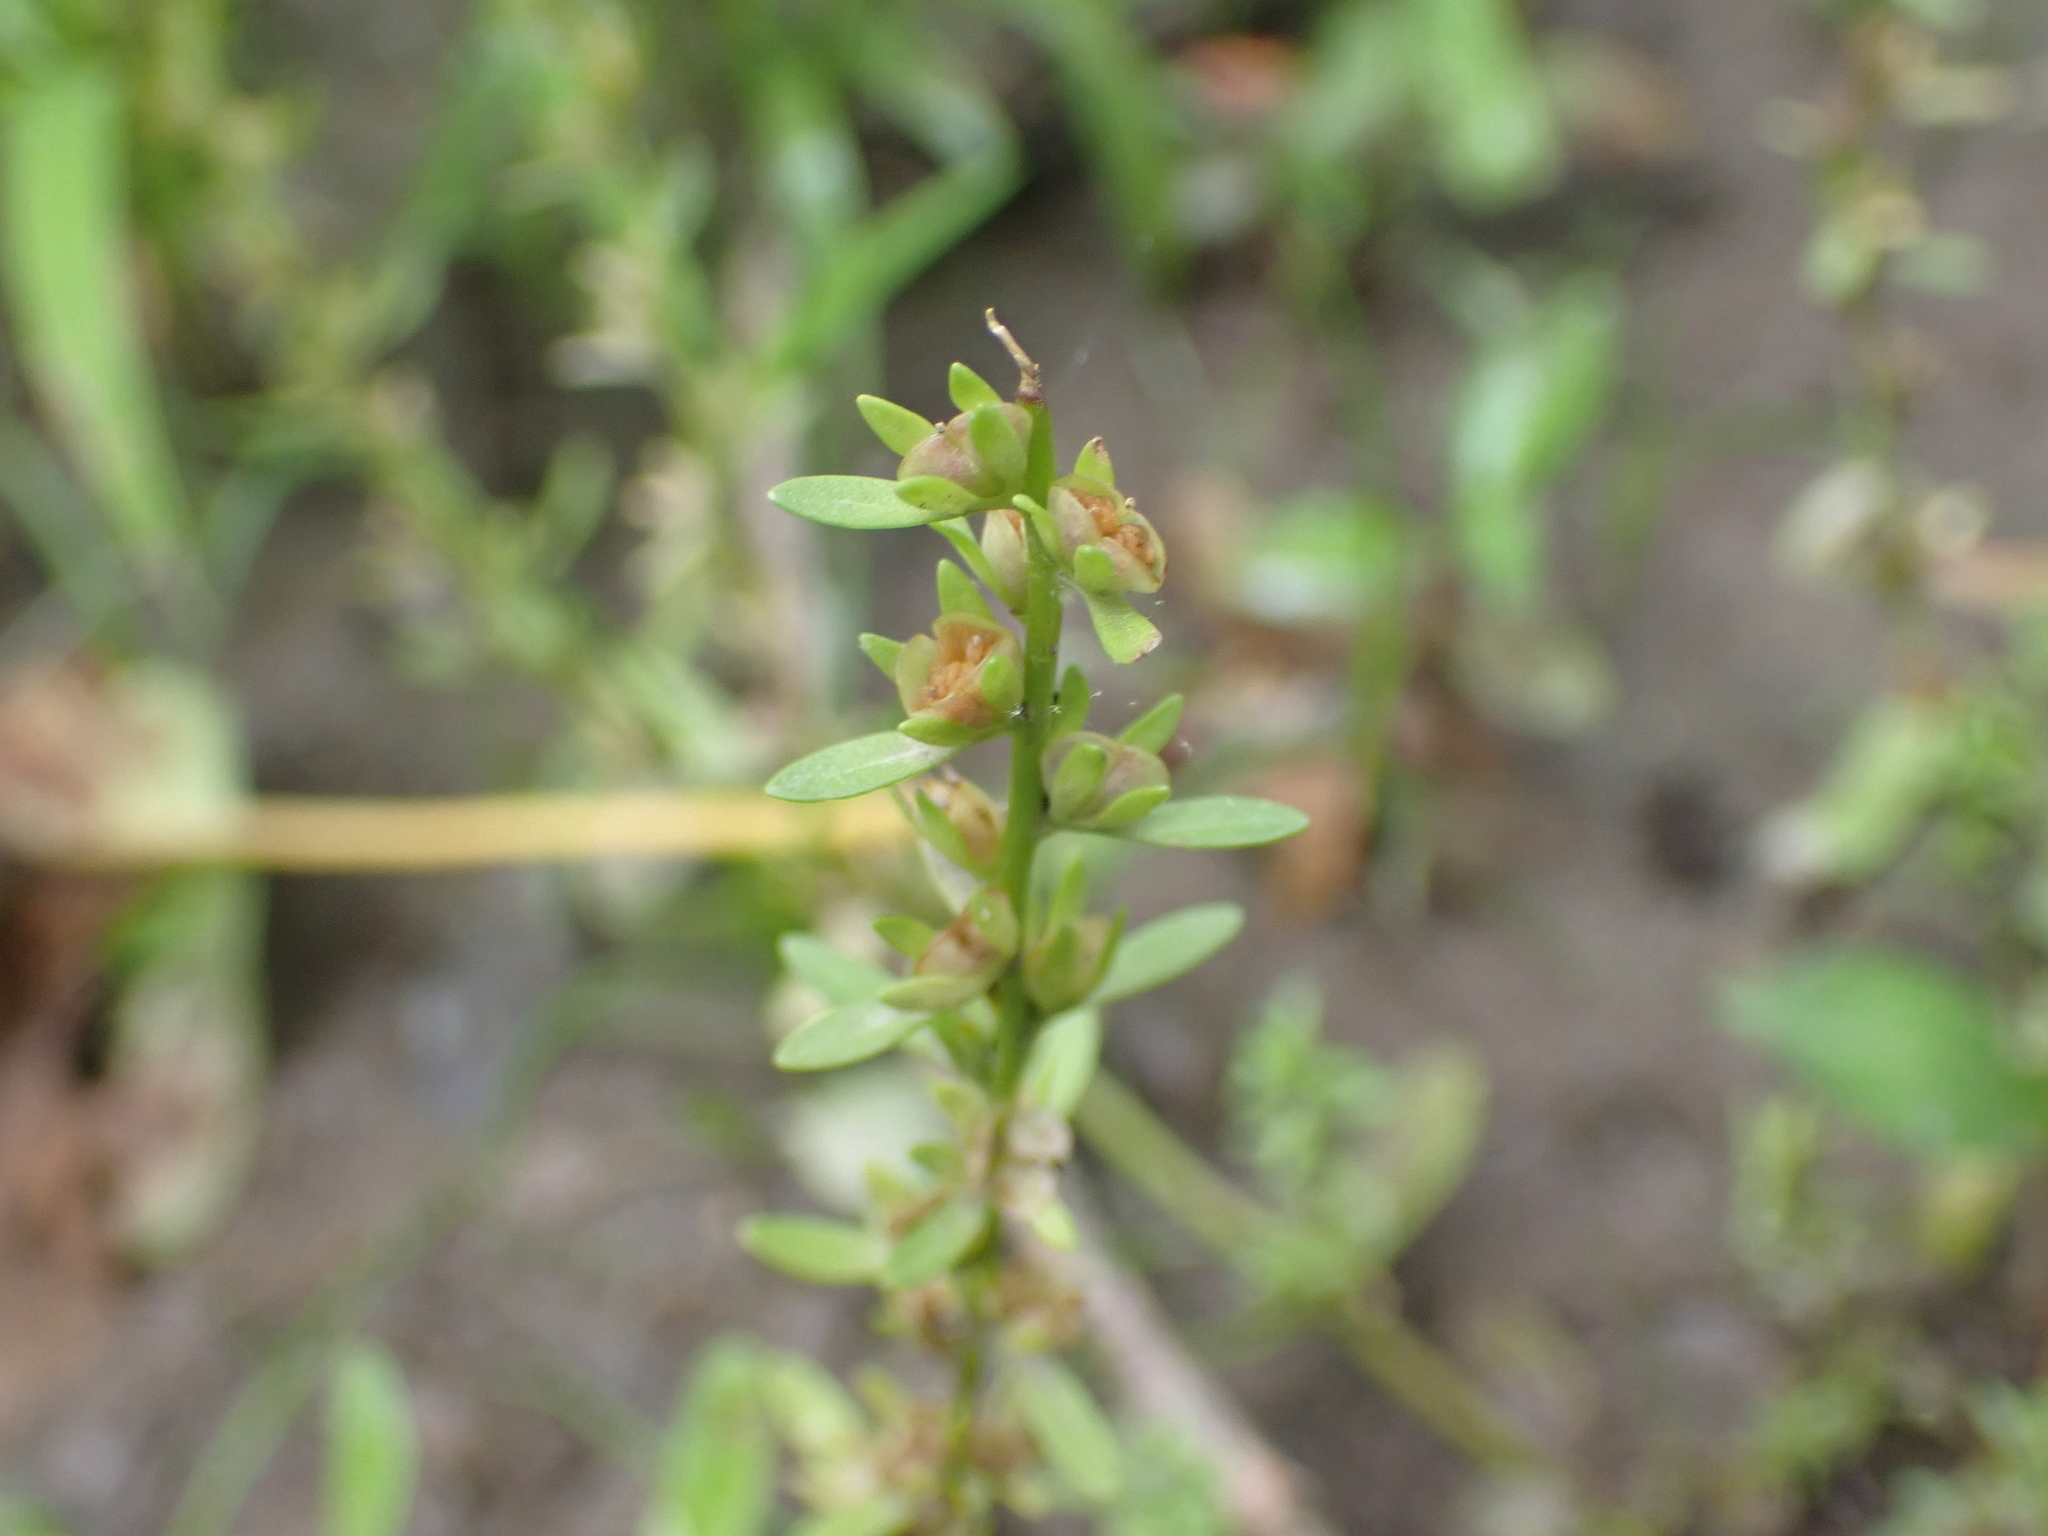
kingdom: Plantae
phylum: Tracheophyta
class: Magnoliopsida
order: Lamiales
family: Plantaginaceae
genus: Veronica
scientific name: Veronica peregrina
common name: Neckweed
